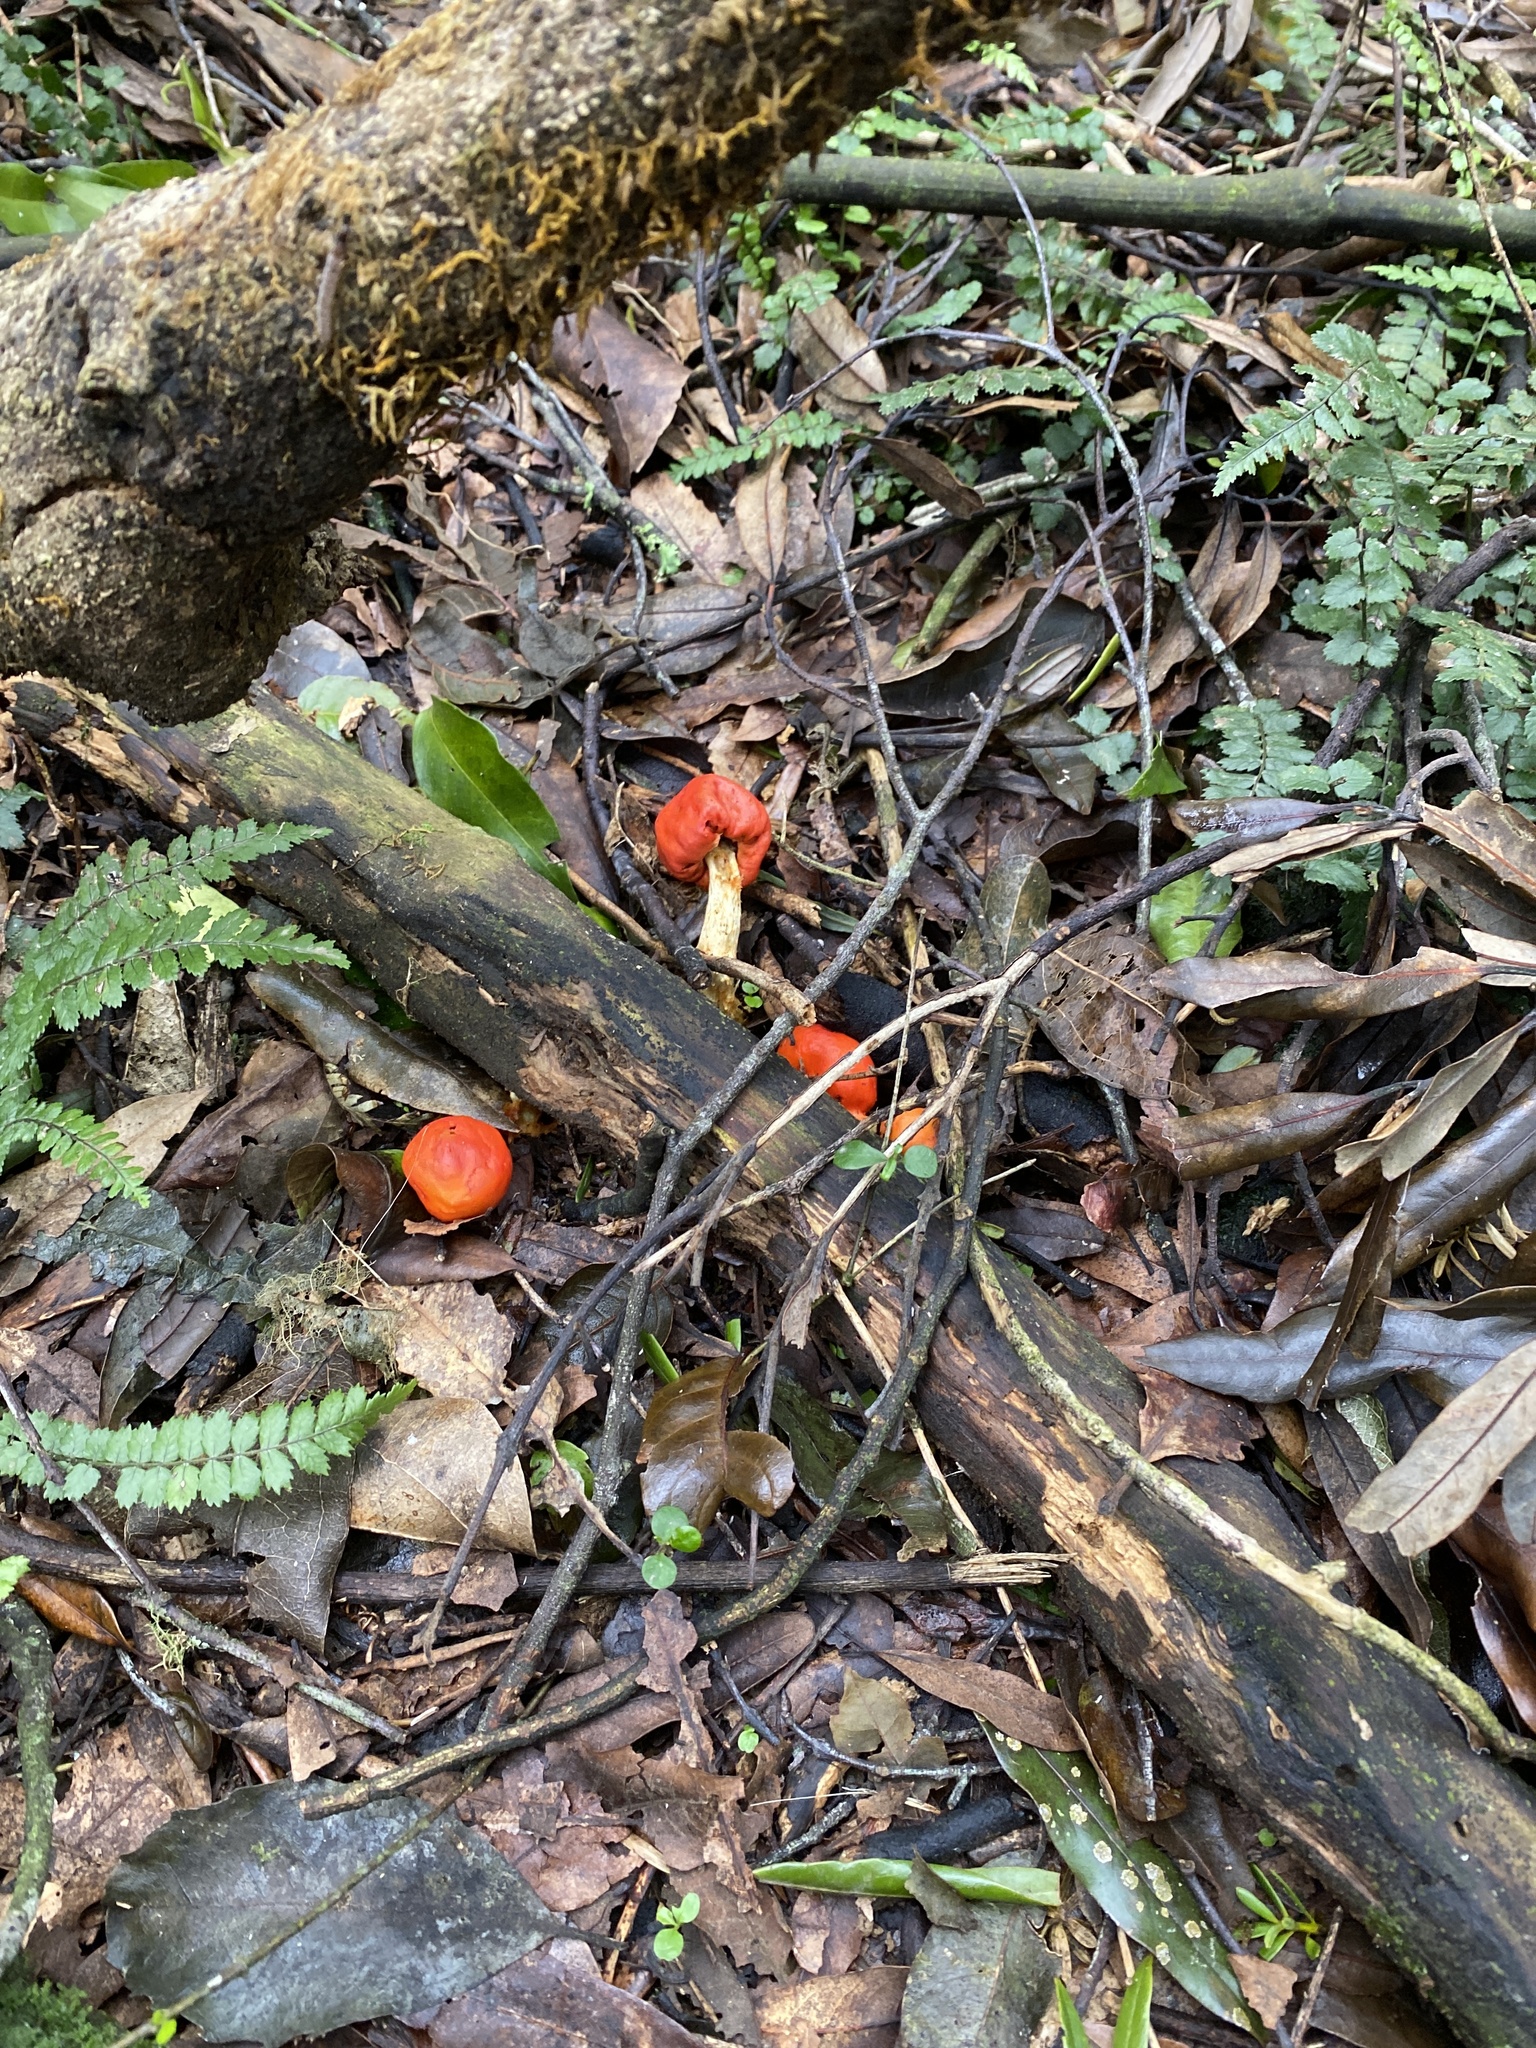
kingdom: Fungi
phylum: Basidiomycota
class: Agaricomycetes
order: Agaricales
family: Strophariaceae
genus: Leratiomyces
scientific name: Leratiomyces erythrocephalus
